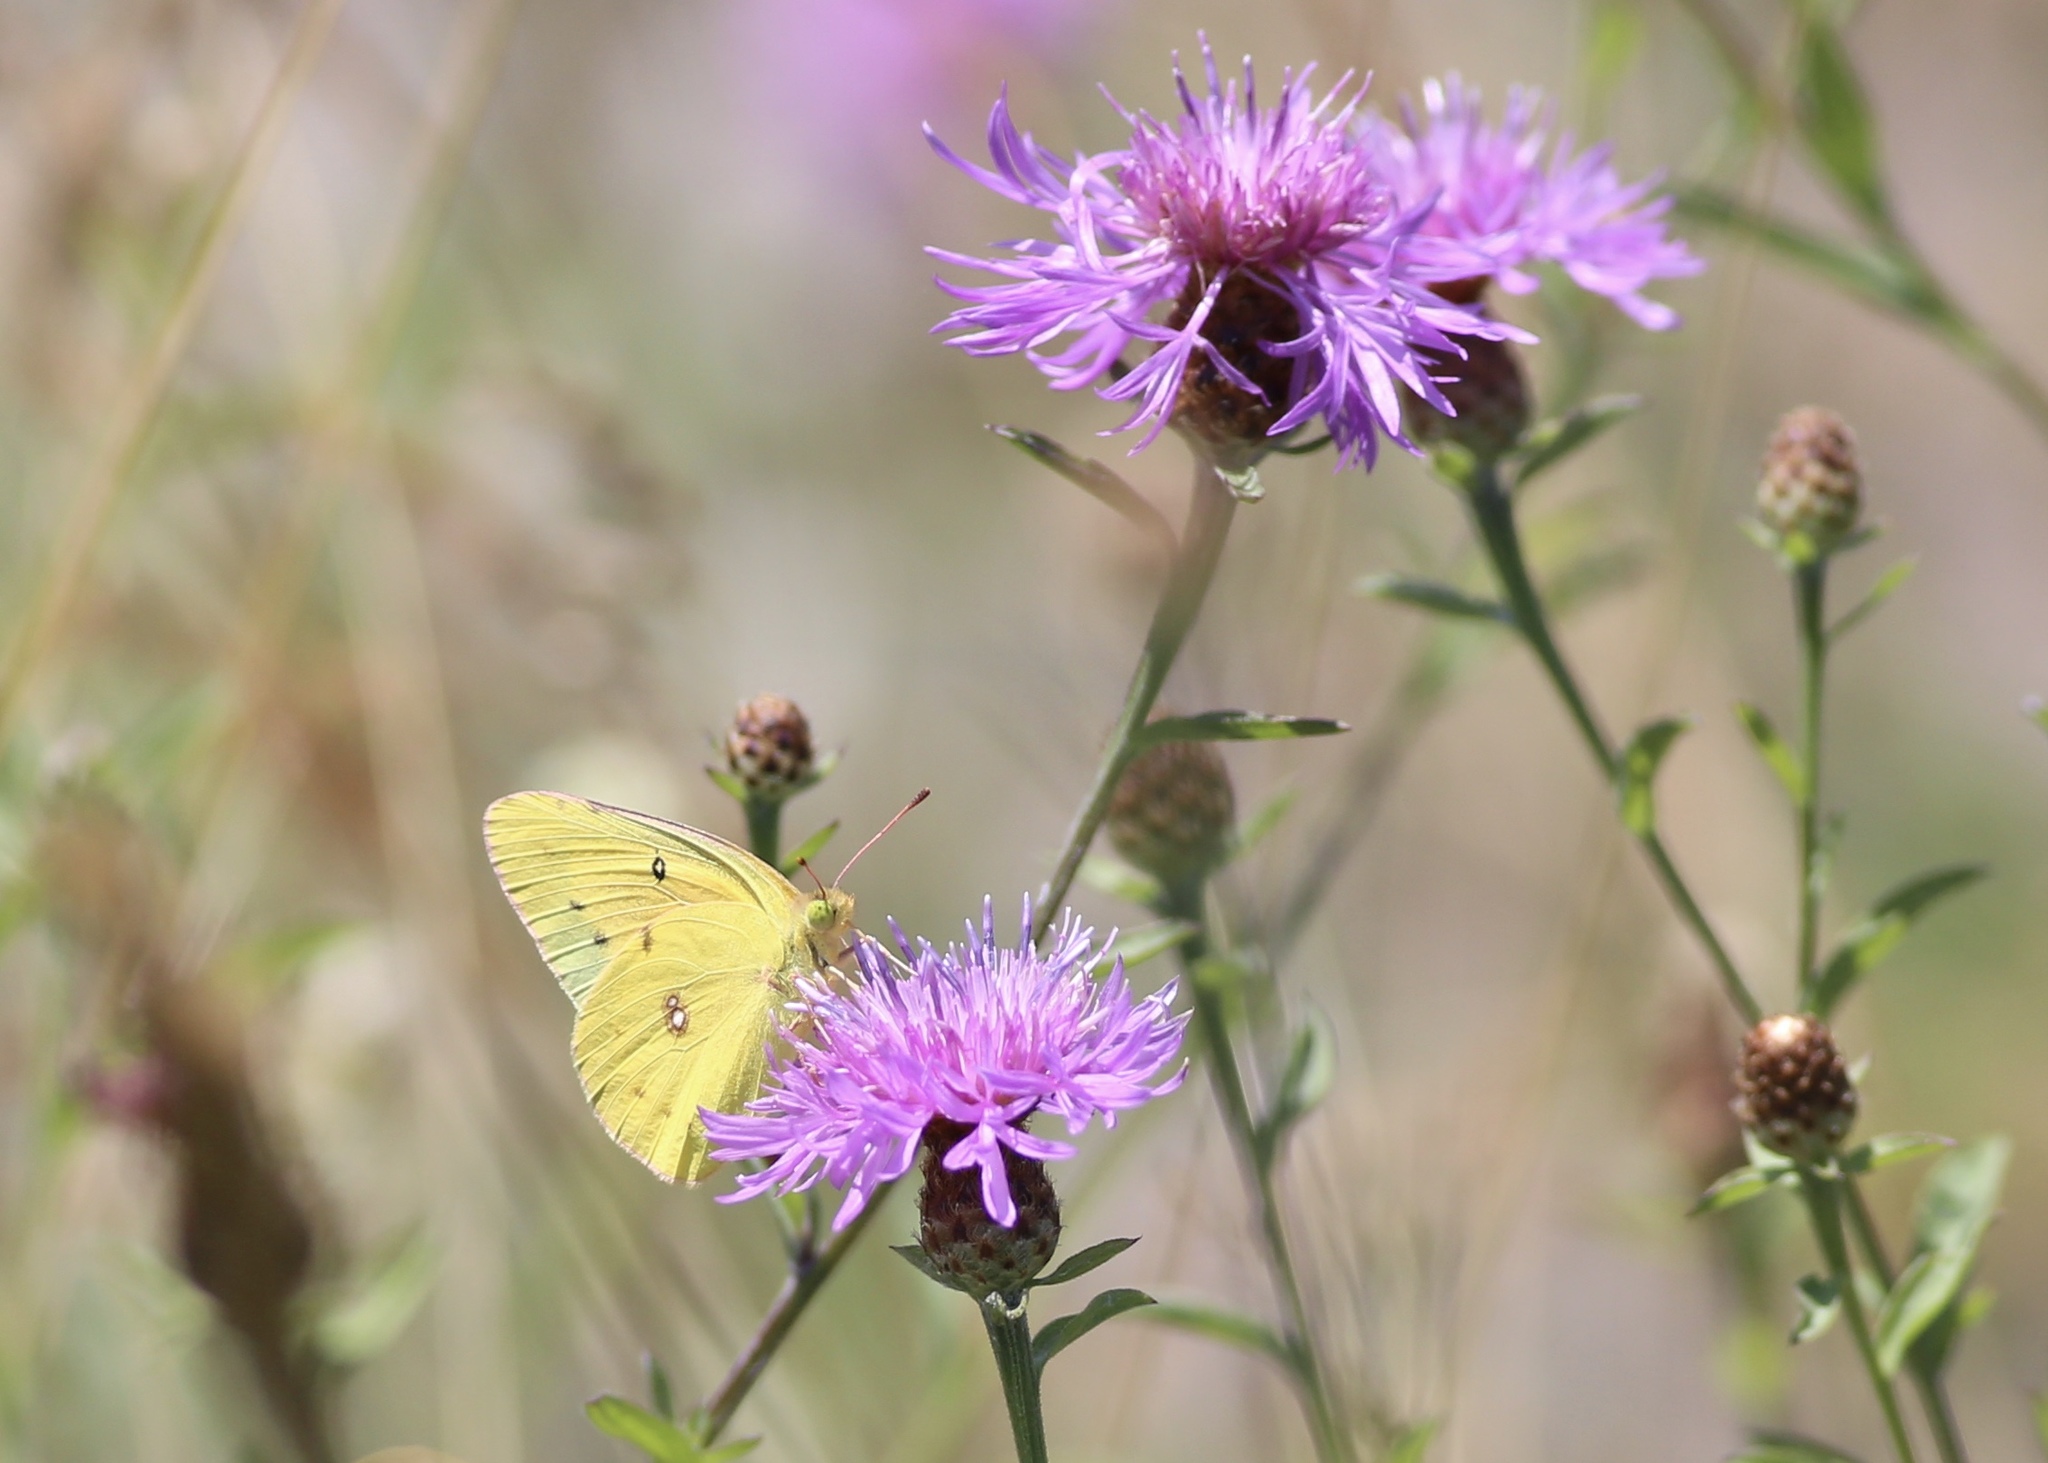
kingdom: Animalia
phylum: Arthropoda
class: Insecta
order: Lepidoptera
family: Pieridae
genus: Colias
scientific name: Colias eurytheme
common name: Alfalfa butterfly
